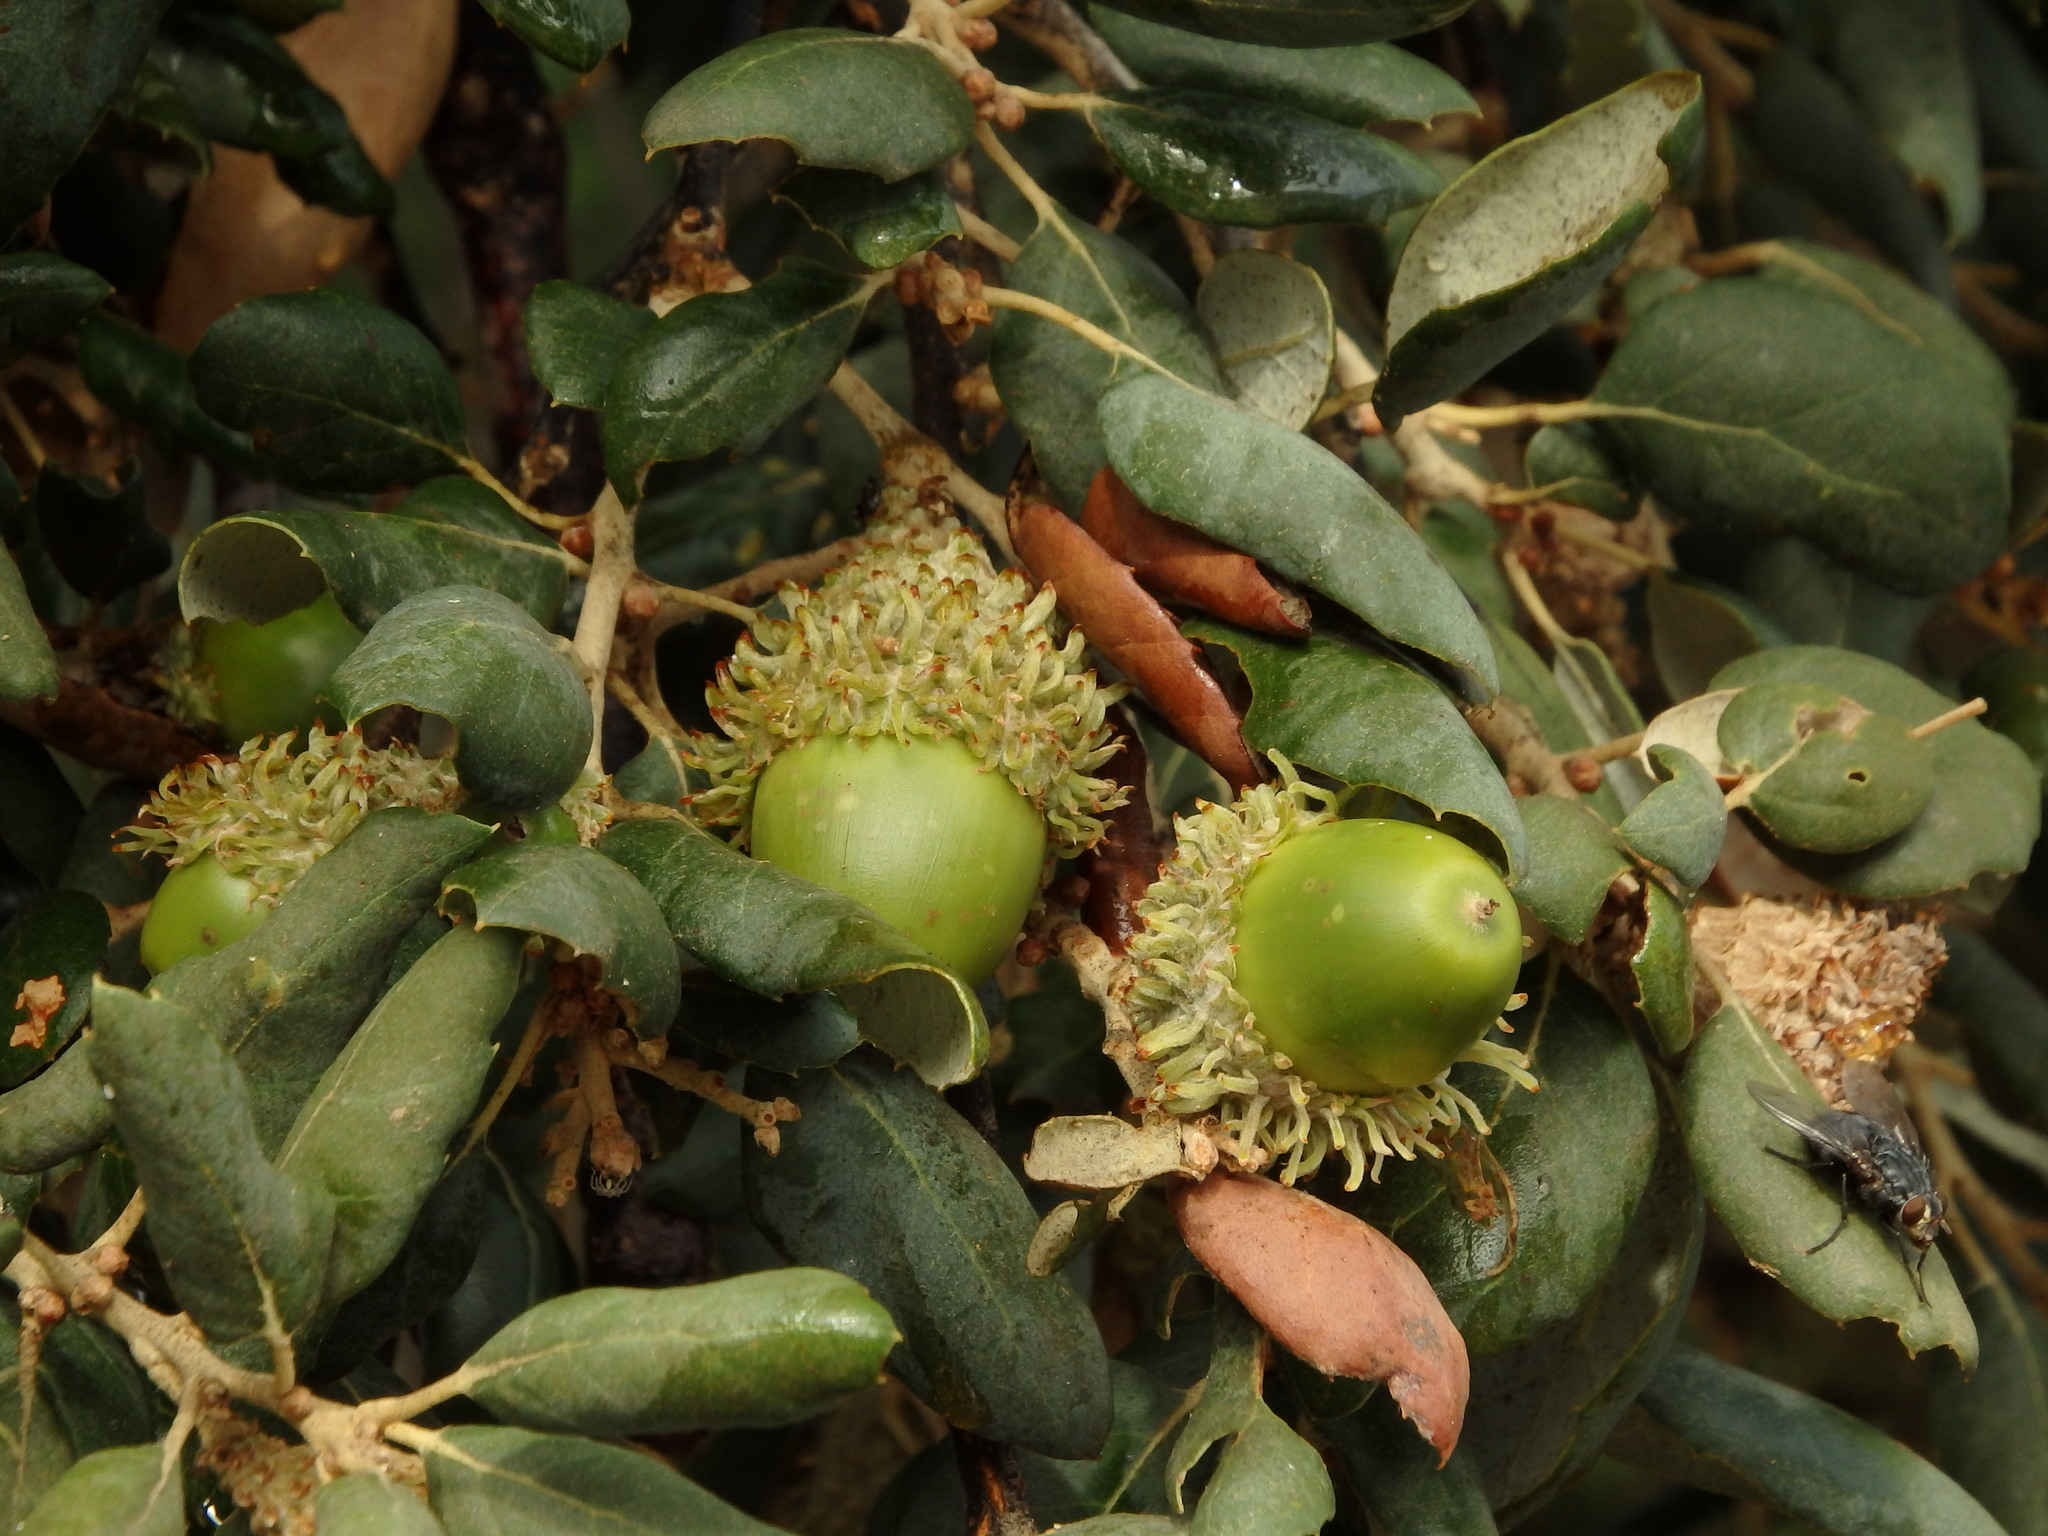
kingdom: Plantae
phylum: Tracheophyta
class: Magnoliopsida
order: Fagales
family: Fagaceae
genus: Quercus
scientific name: Quercus suber
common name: Cork oak
